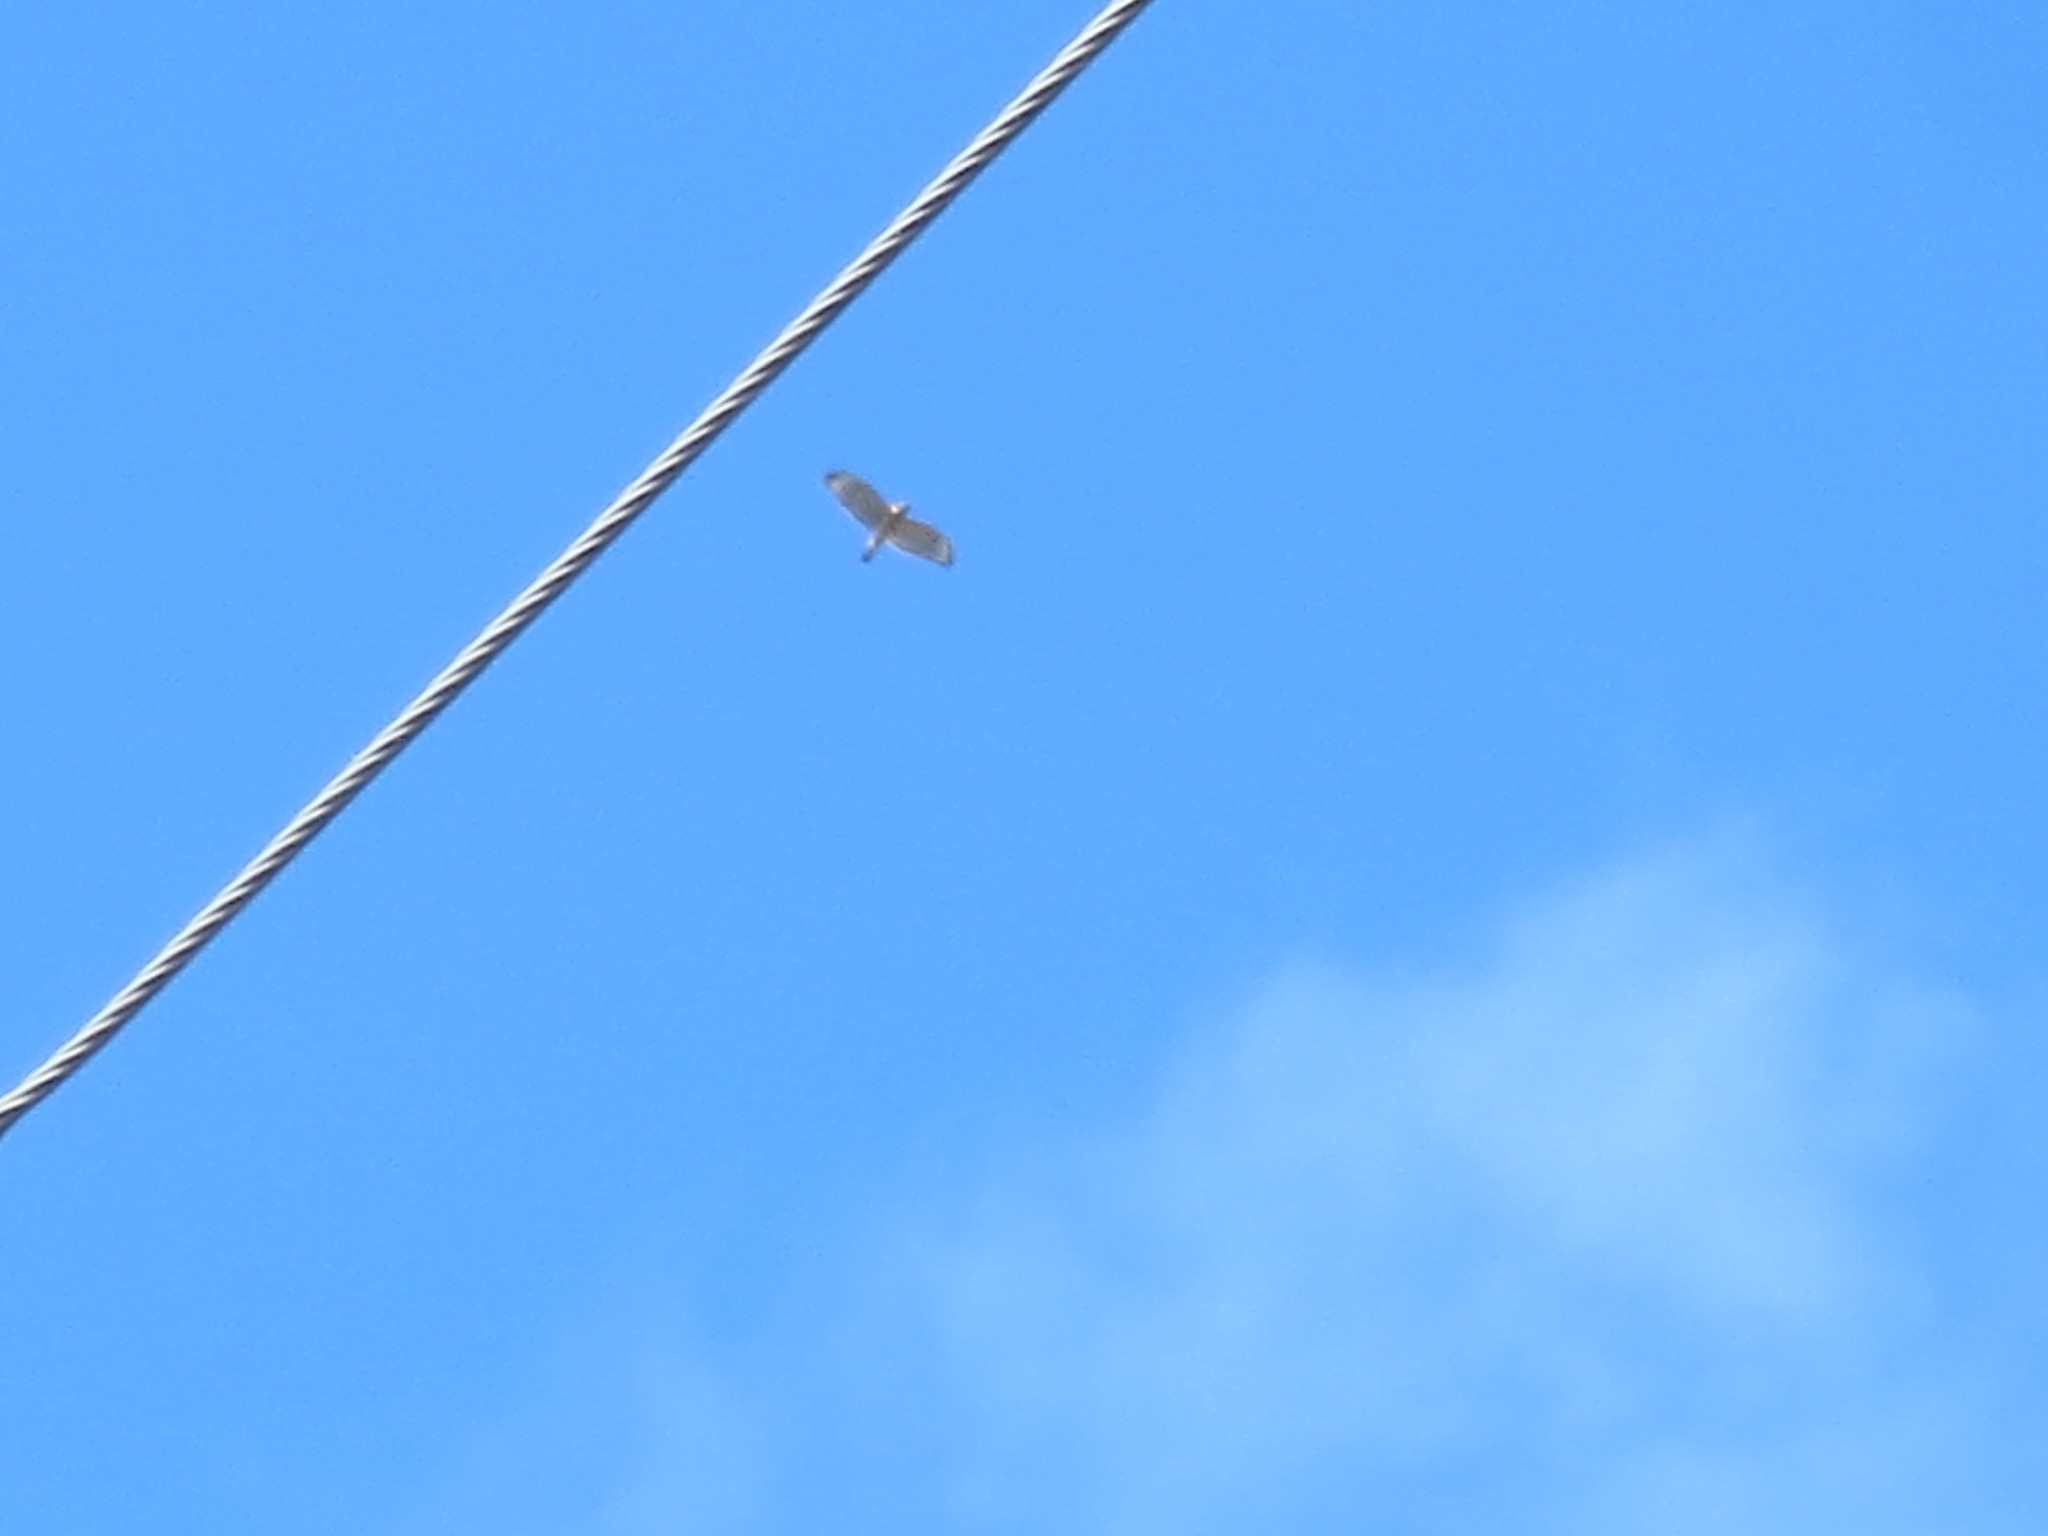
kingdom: Animalia
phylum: Chordata
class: Aves
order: Accipitriformes
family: Accipitridae
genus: Buteo
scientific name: Buteo lineatus
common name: Red-shouldered hawk
